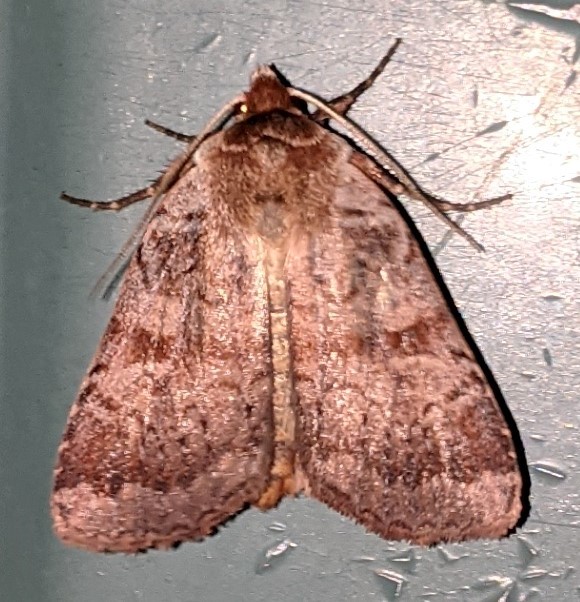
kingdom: Animalia
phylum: Arthropoda
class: Insecta
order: Lepidoptera
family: Noctuidae
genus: Lycophotia
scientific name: Lycophotia phyllophora
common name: Lycophotia moth
